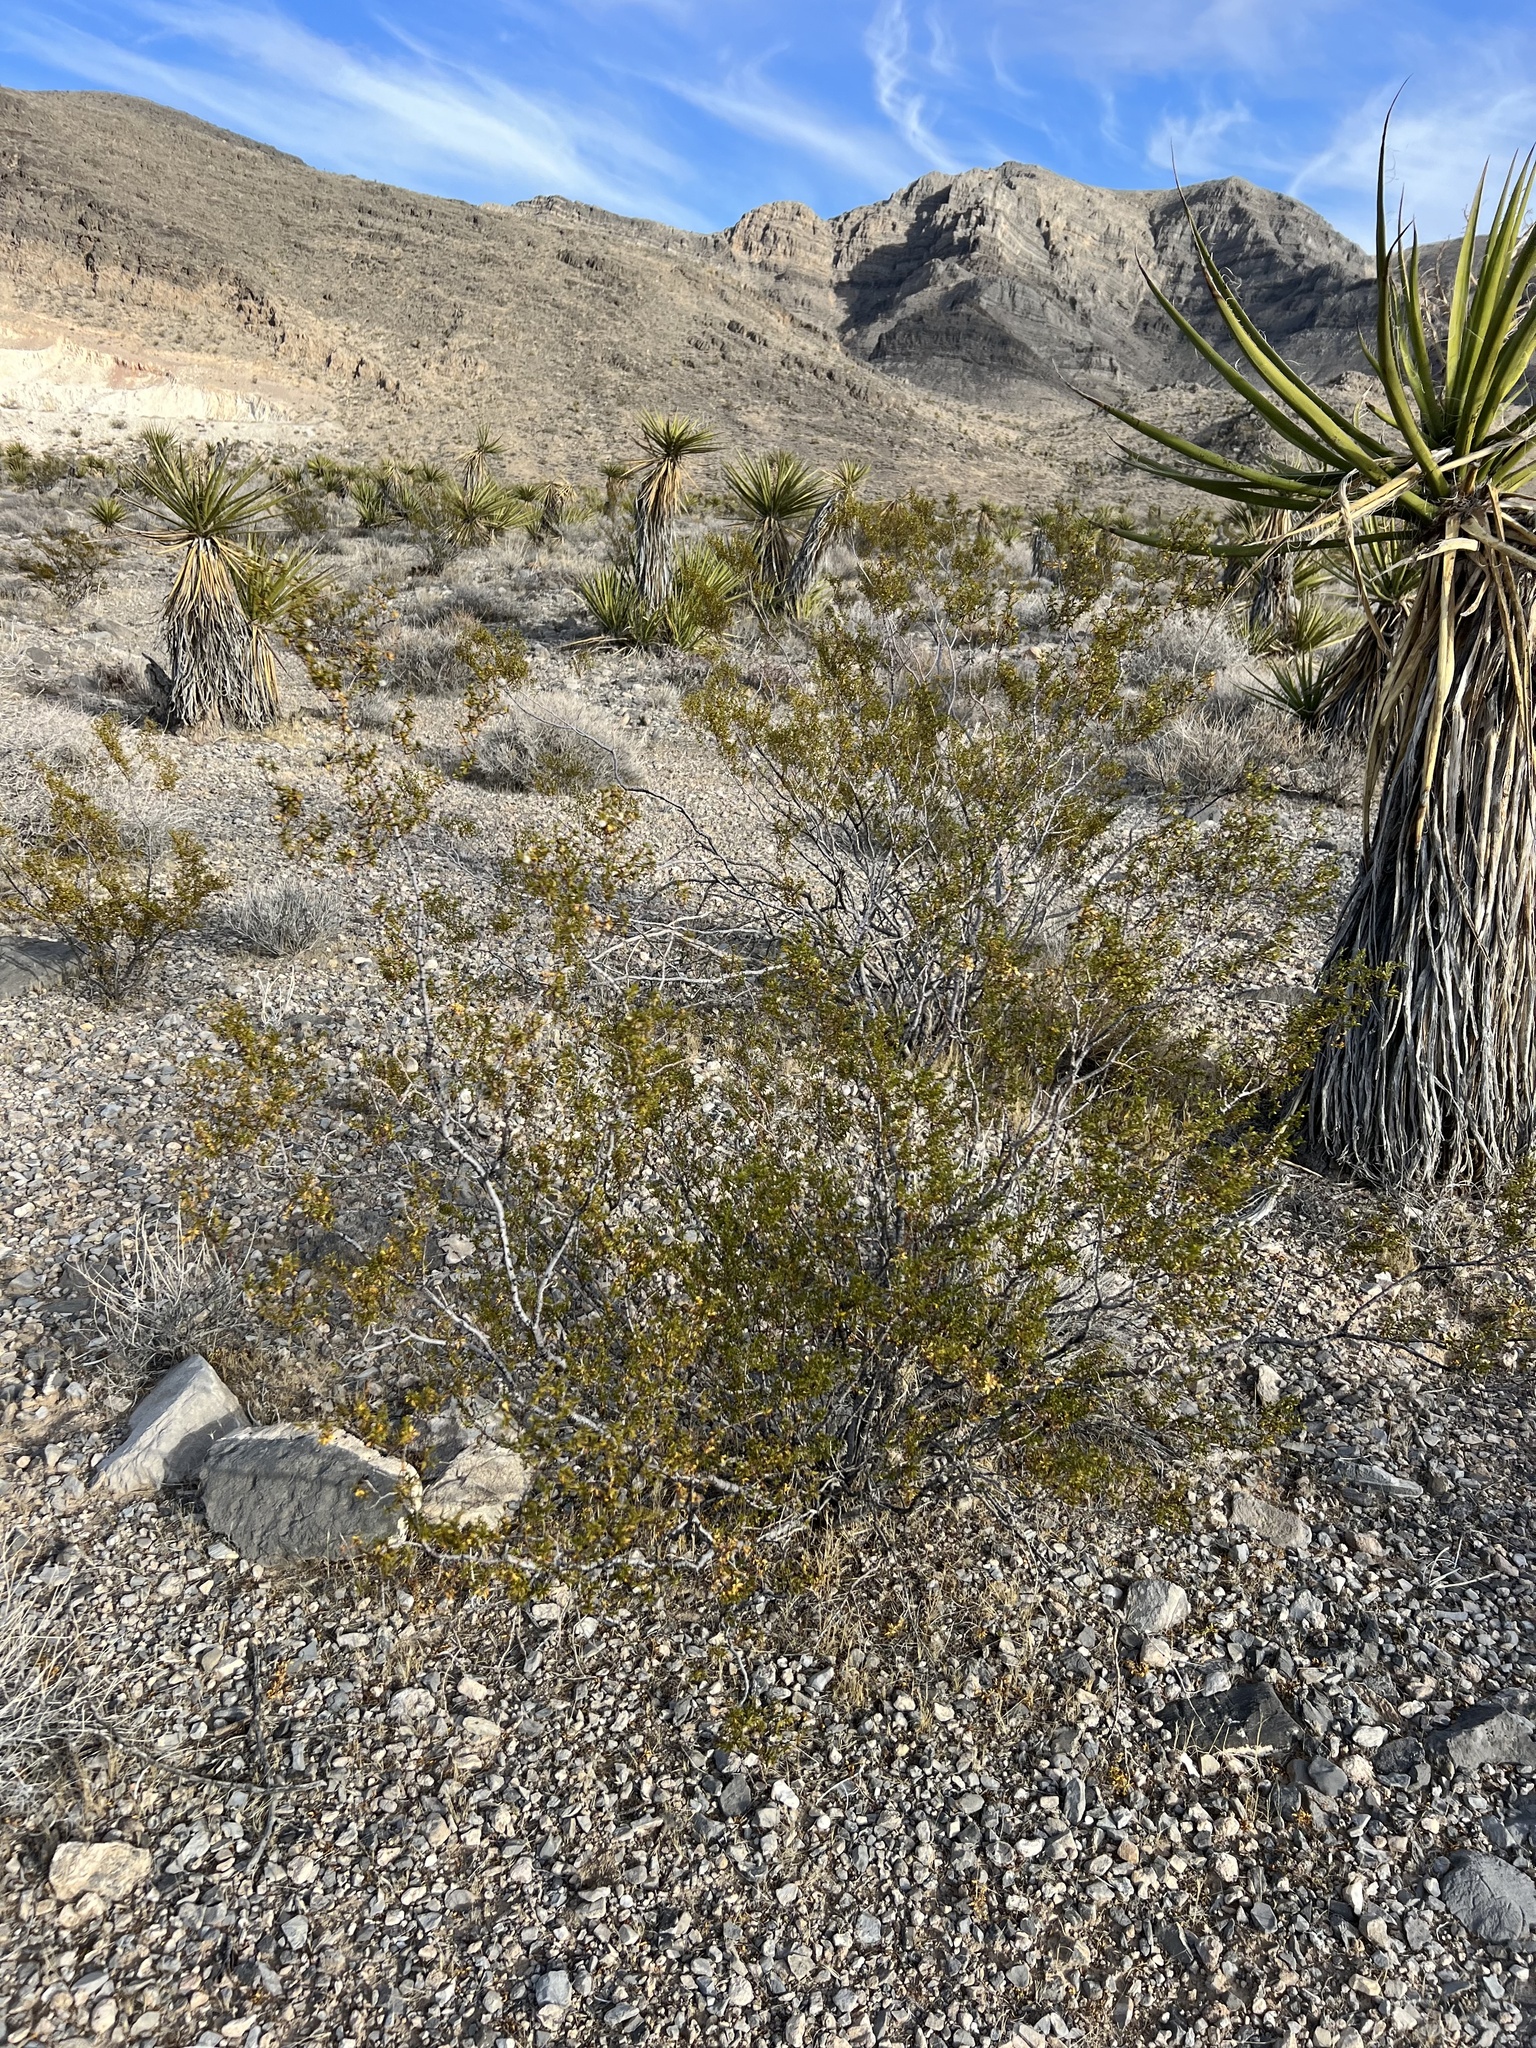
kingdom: Plantae
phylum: Tracheophyta
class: Magnoliopsida
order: Zygophyllales
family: Zygophyllaceae
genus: Larrea
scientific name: Larrea tridentata
